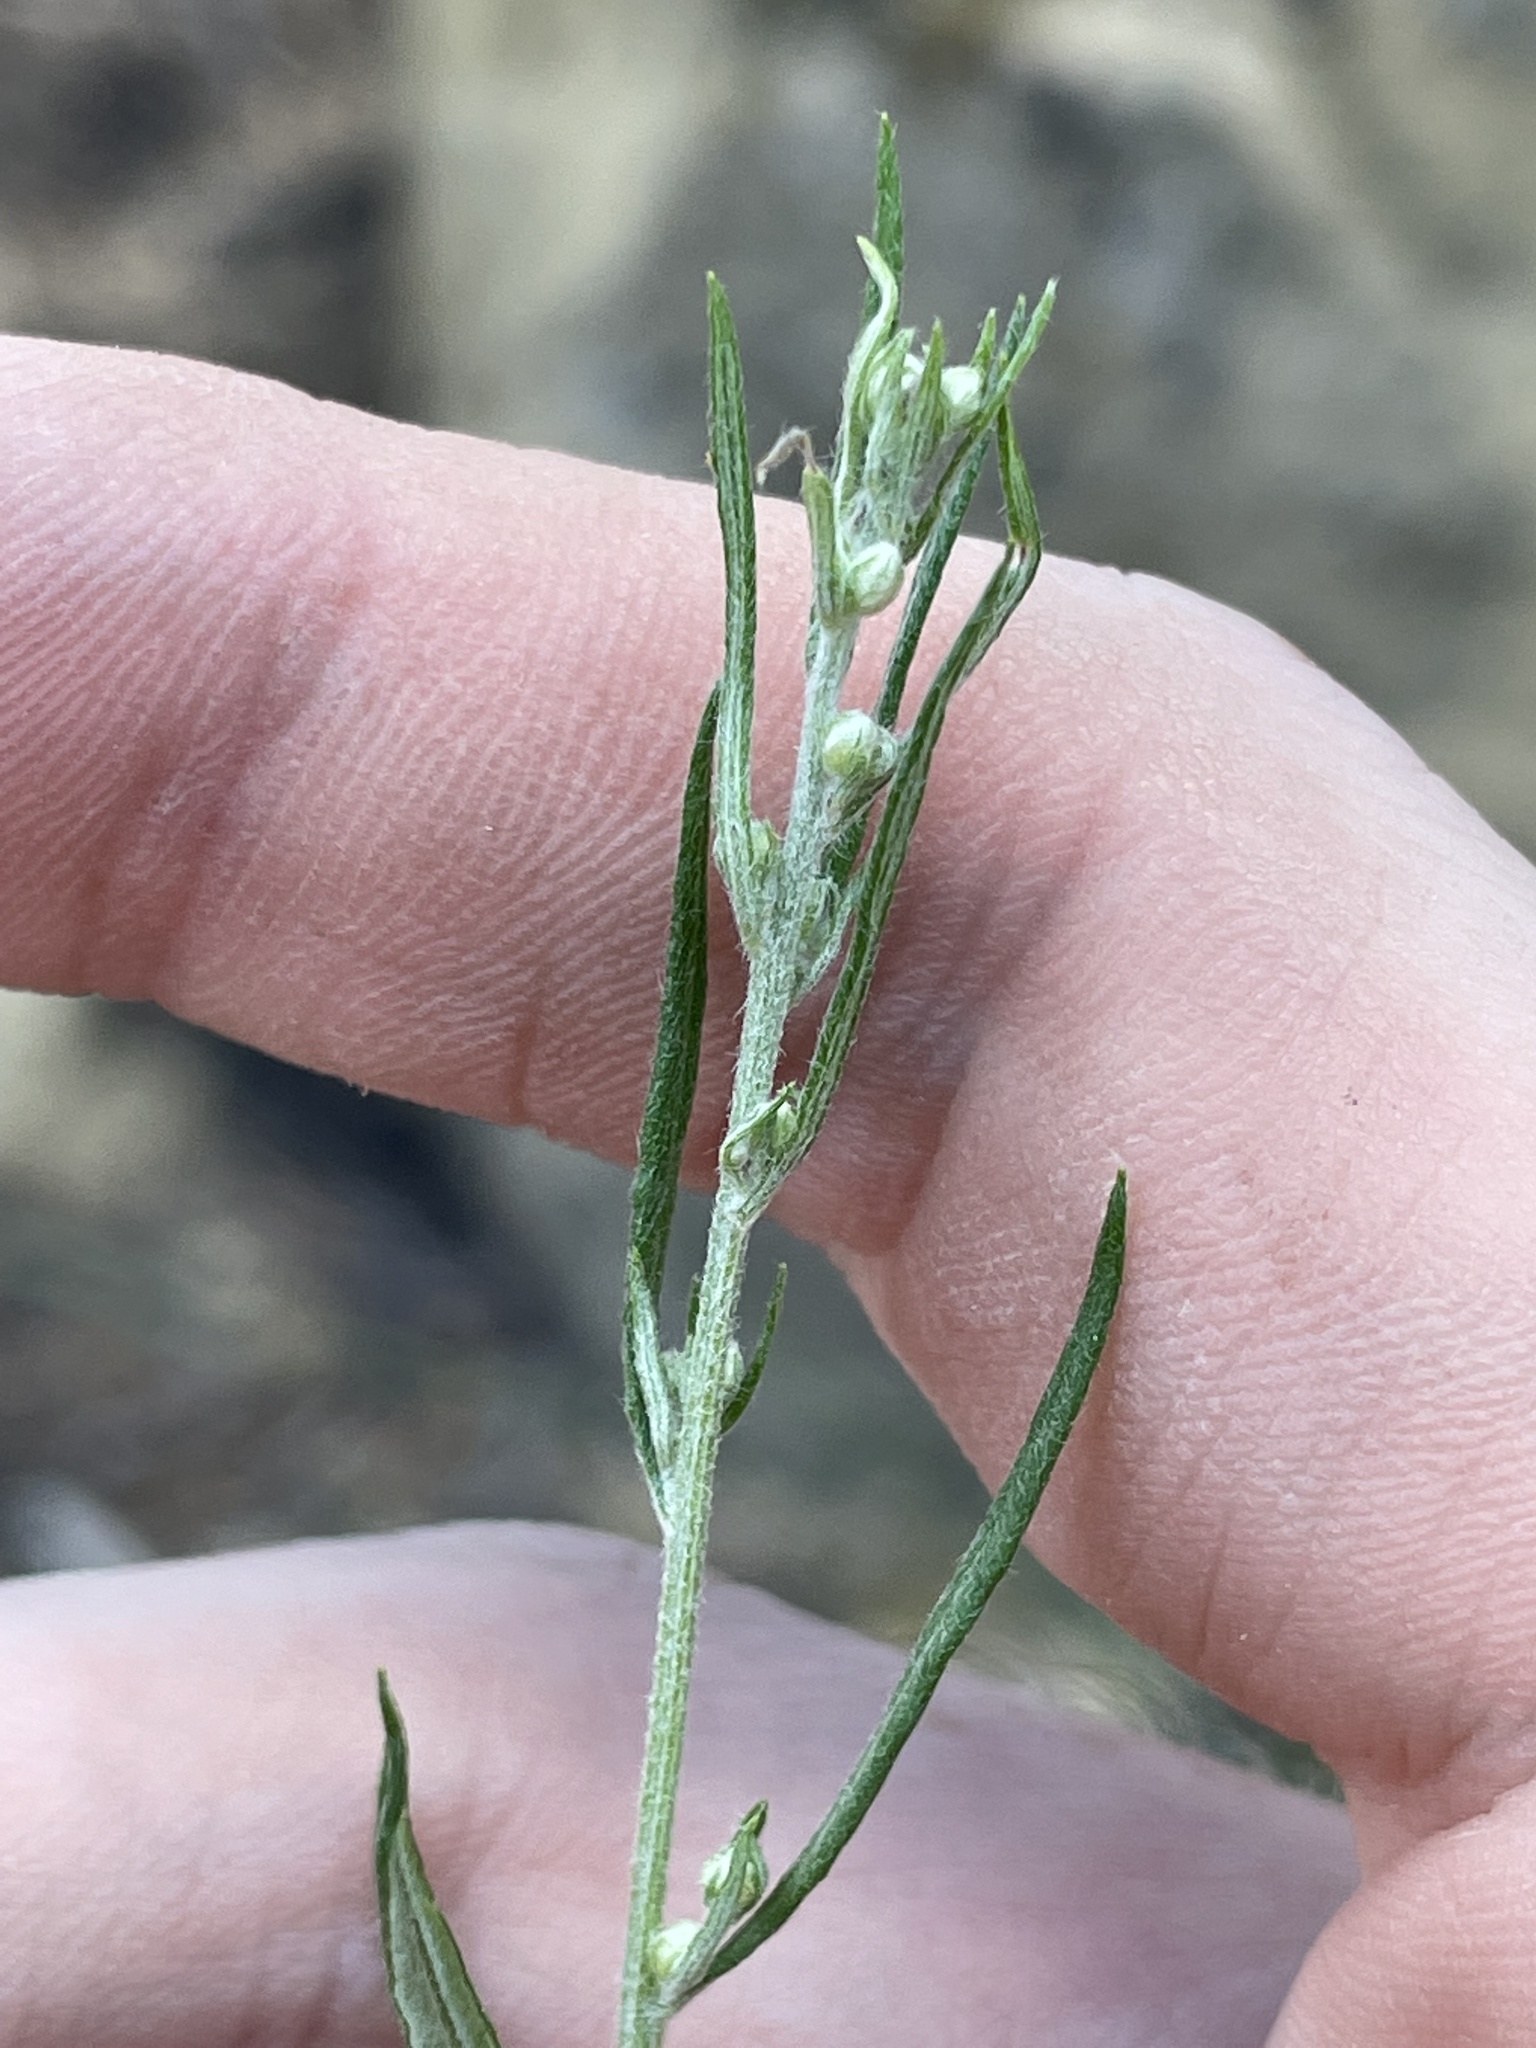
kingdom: Plantae
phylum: Tracheophyta
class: Magnoliopsida
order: Asterales
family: Asteraceae
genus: Artemisia
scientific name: Artemisia ludoviciana
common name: Western mugwort
